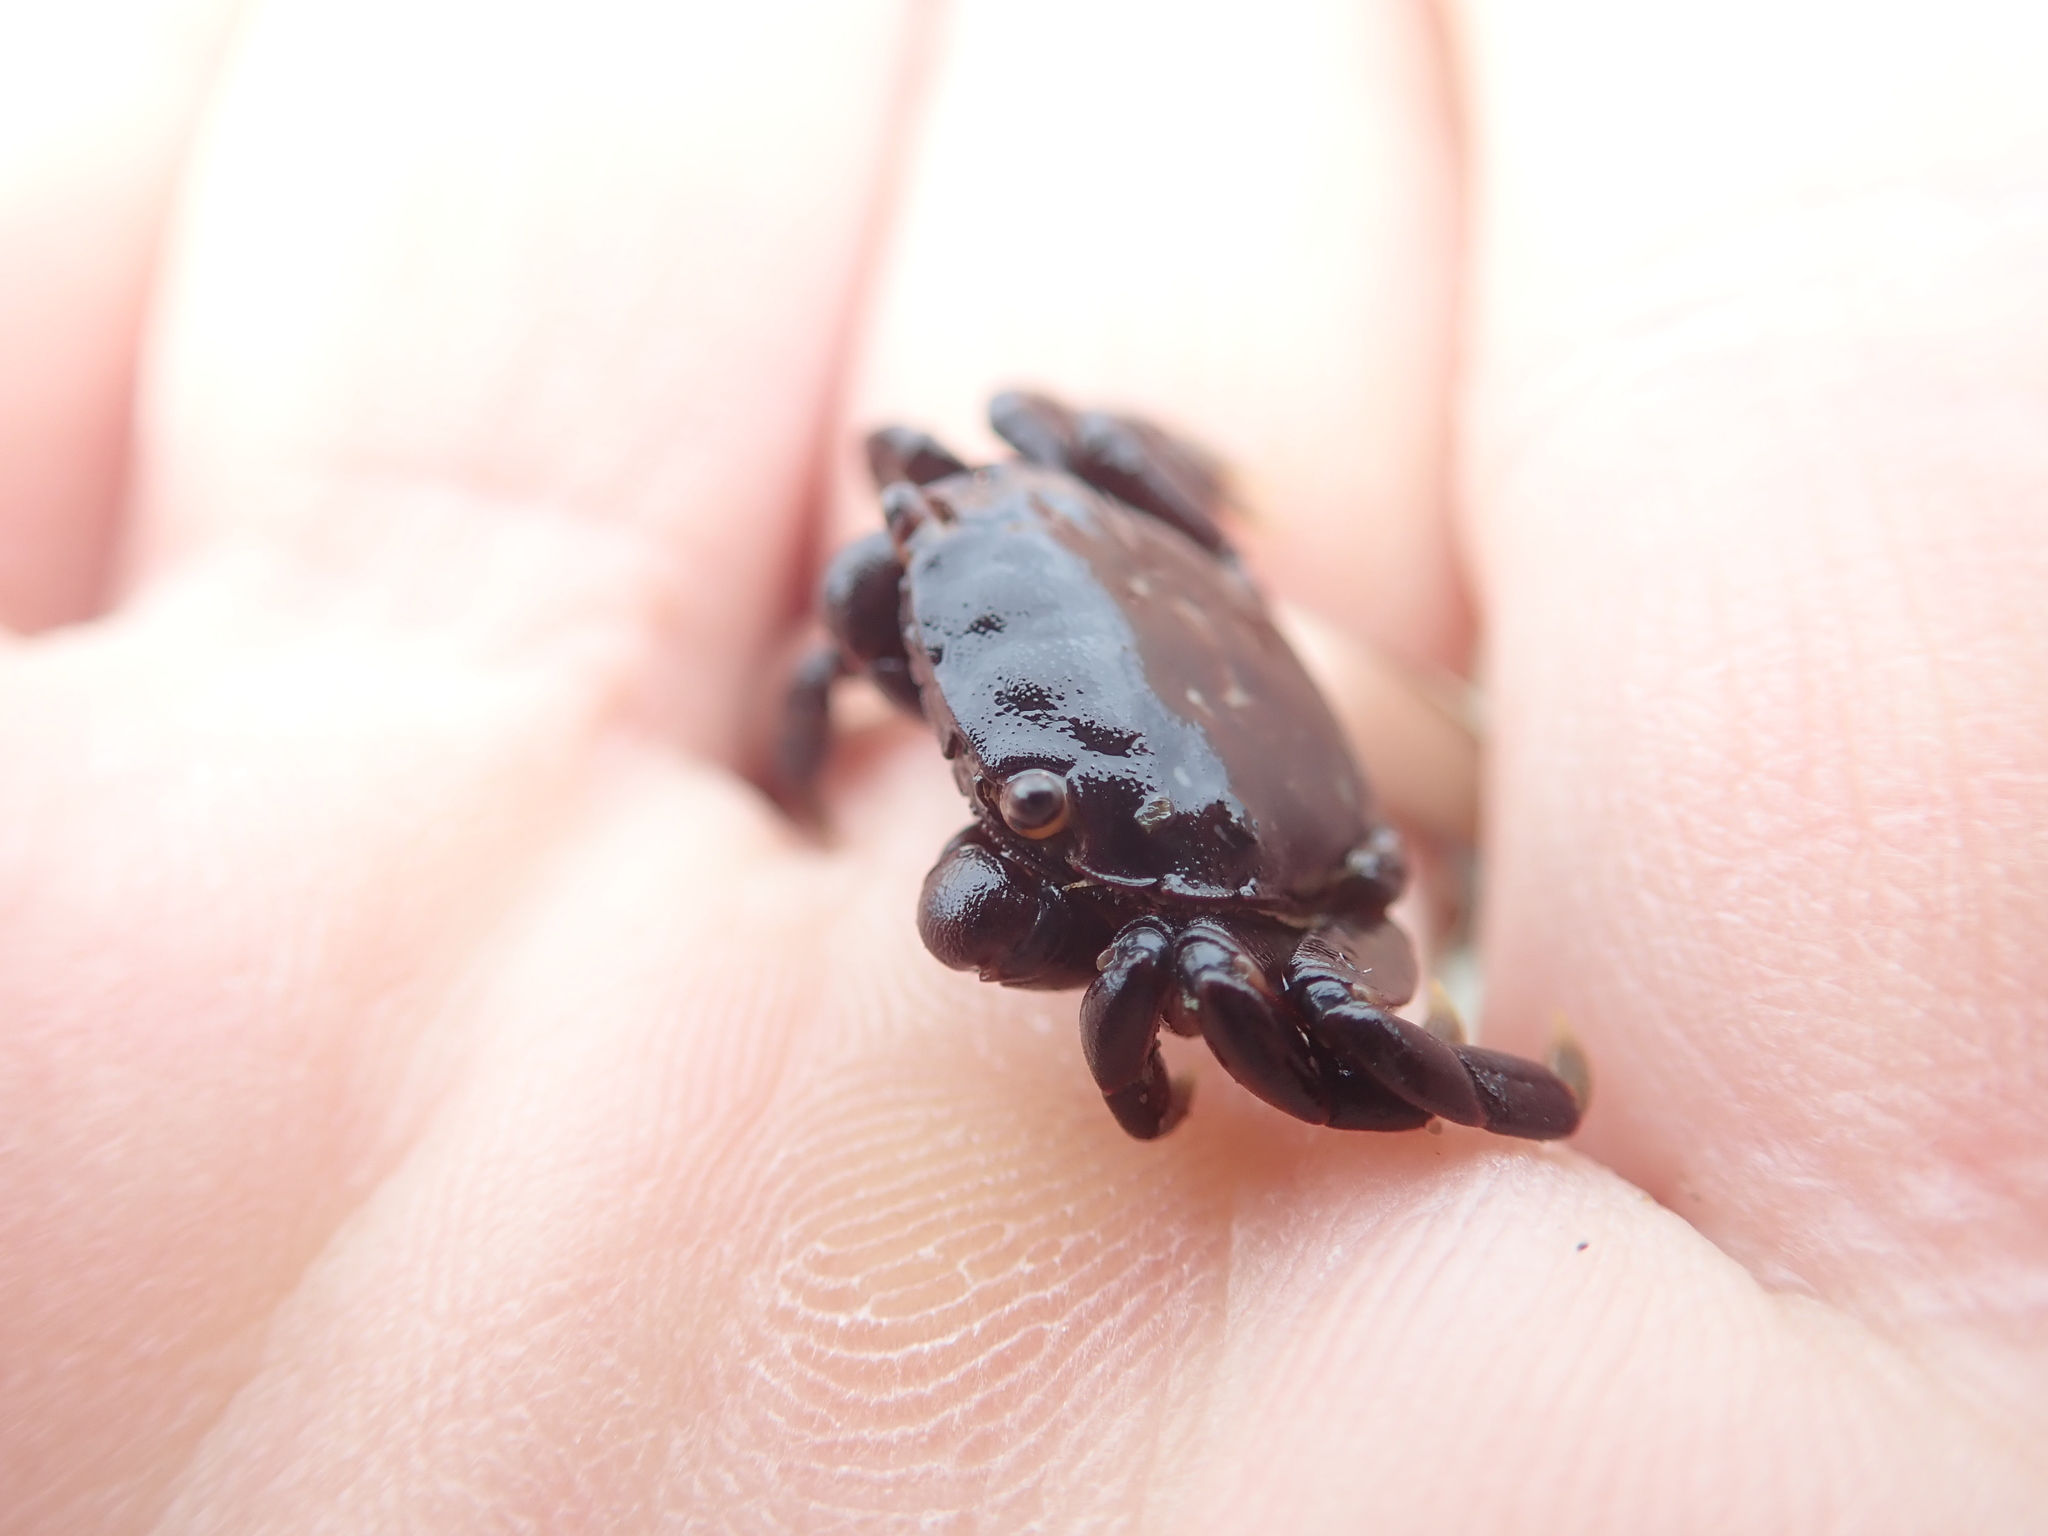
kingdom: Animalia
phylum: Arthropoda
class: Malacostraca
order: Decapoda
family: Varunidae
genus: Hemigrapsus
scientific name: Hemigrapsus nudus
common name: Purple shore crab
